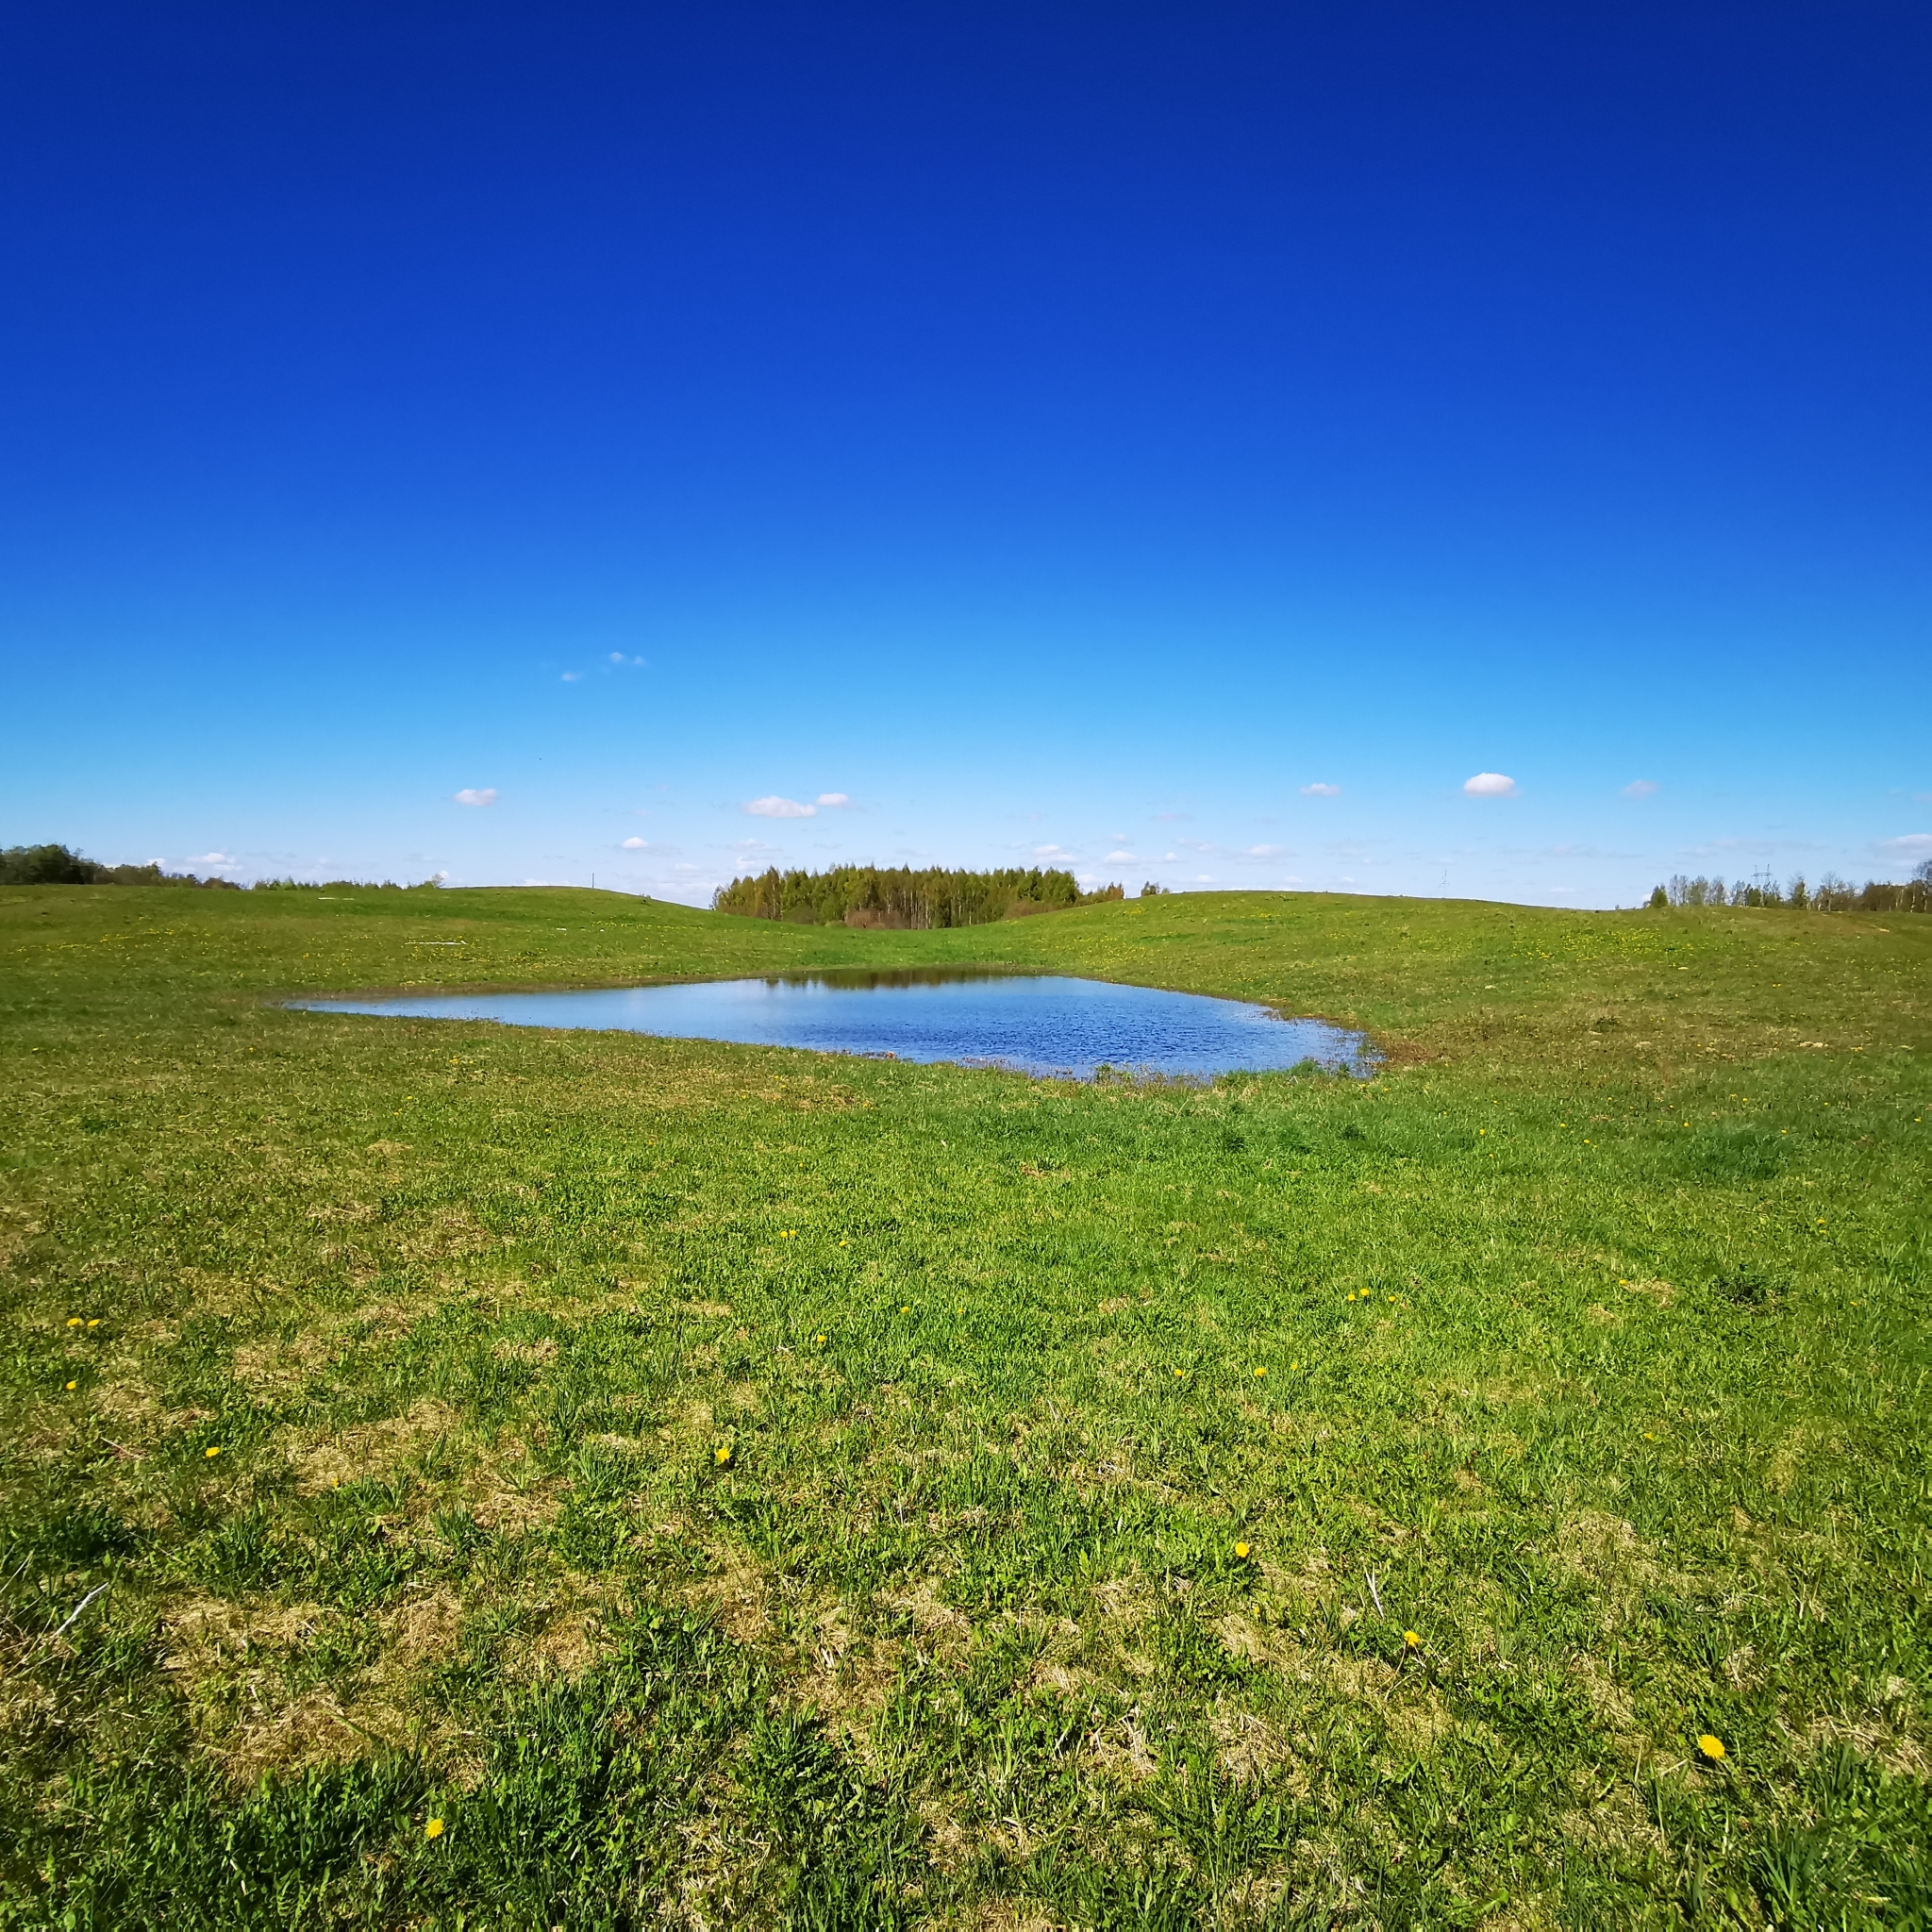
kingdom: Animalia
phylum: Chordata
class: Amphibia
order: Anura
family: Bombinatoridae
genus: Bombina
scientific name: Bombina bombina
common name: Fire-bellied toad
